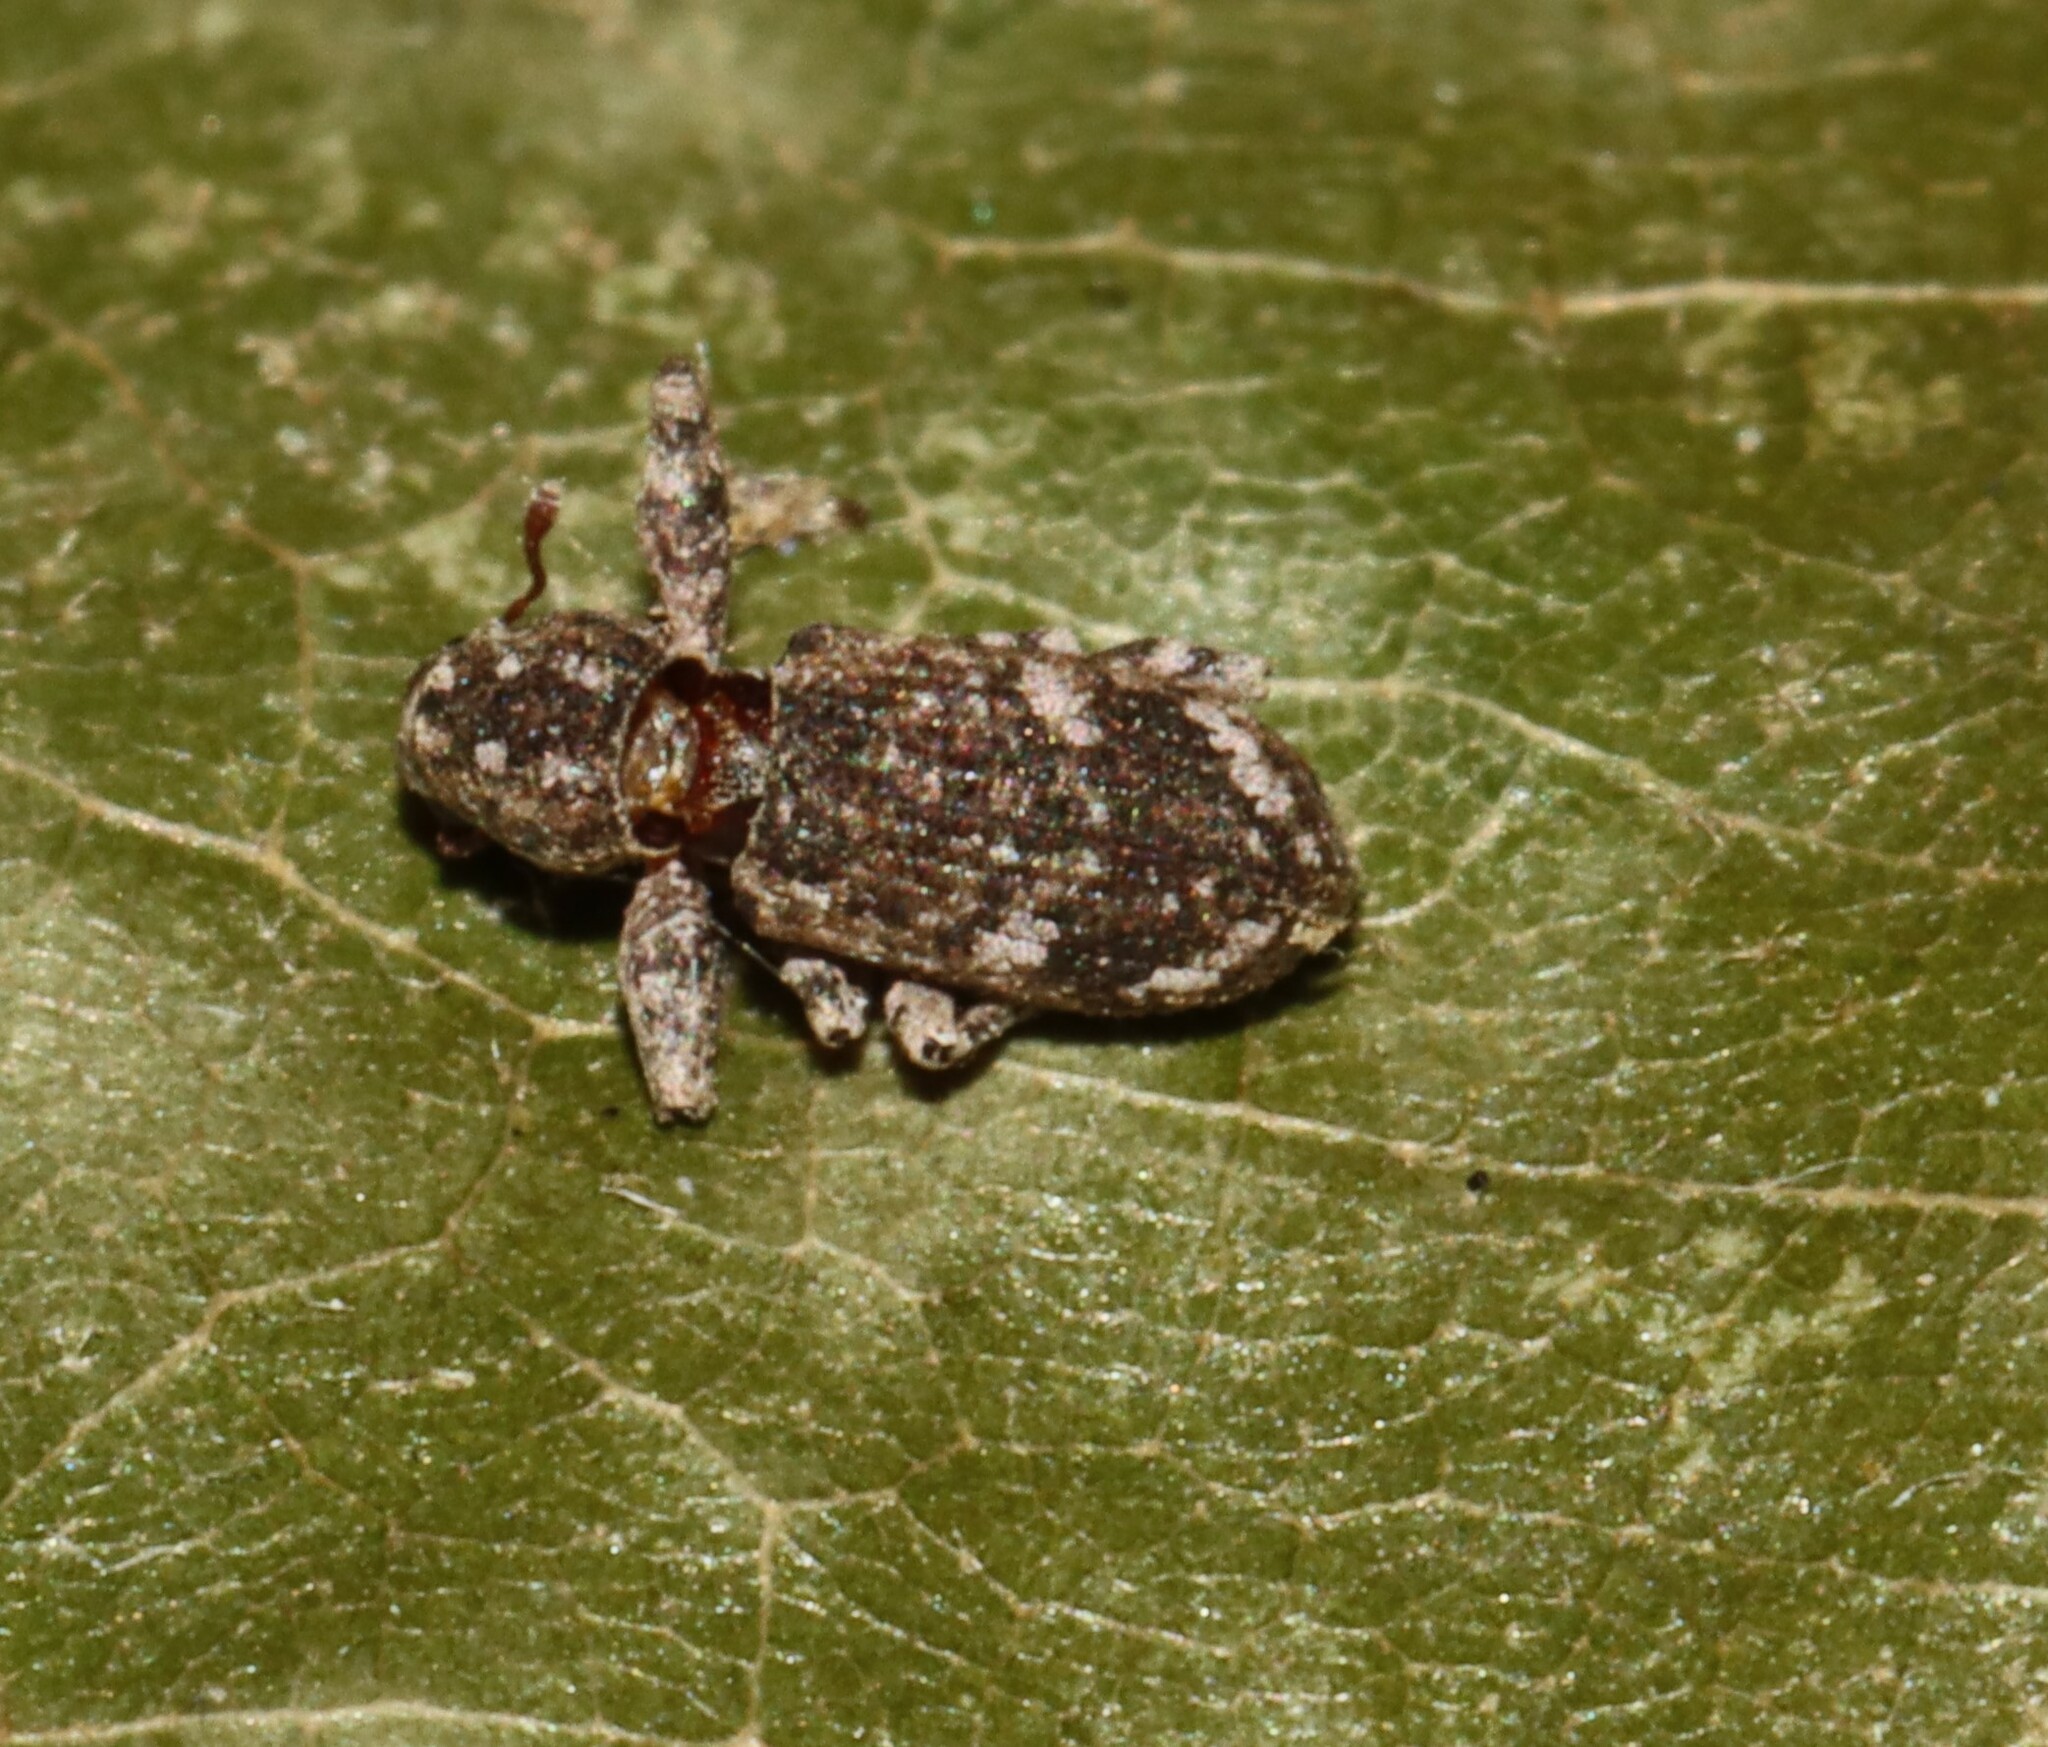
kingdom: Animalia
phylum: Arthropoda
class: Insecta
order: Coleoptera
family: Curculionidae
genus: Pandeleteius
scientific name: Pandeleteius hilaris
